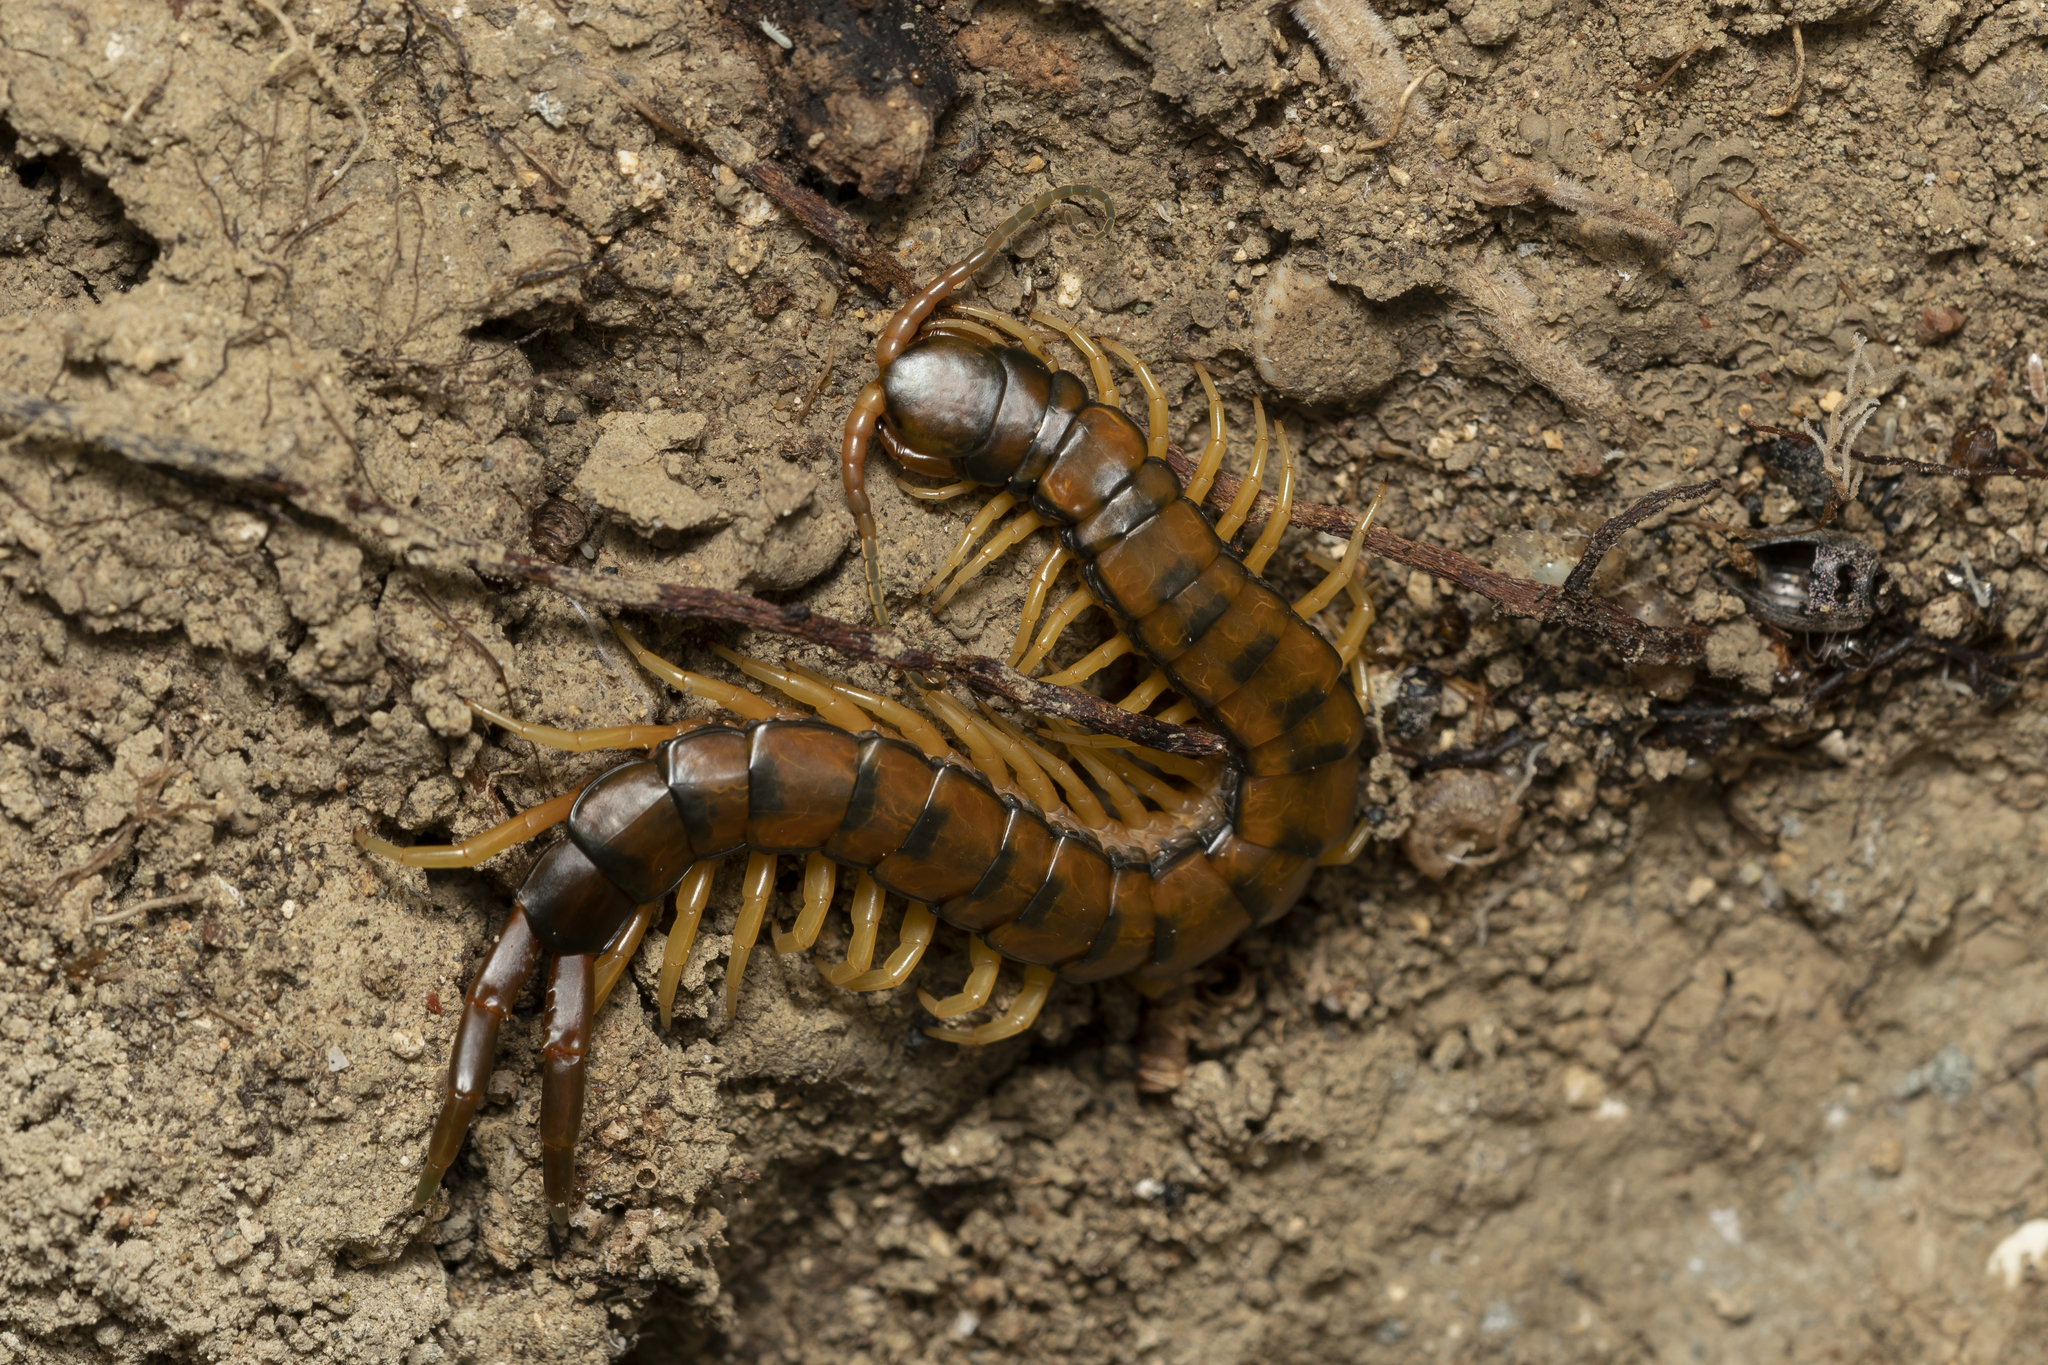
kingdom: Animalia
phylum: Arthropoda
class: Chilopoda
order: Scolopendromorpha
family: Scolopendridae
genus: Scolopendra
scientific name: Scolopendra cingulata
